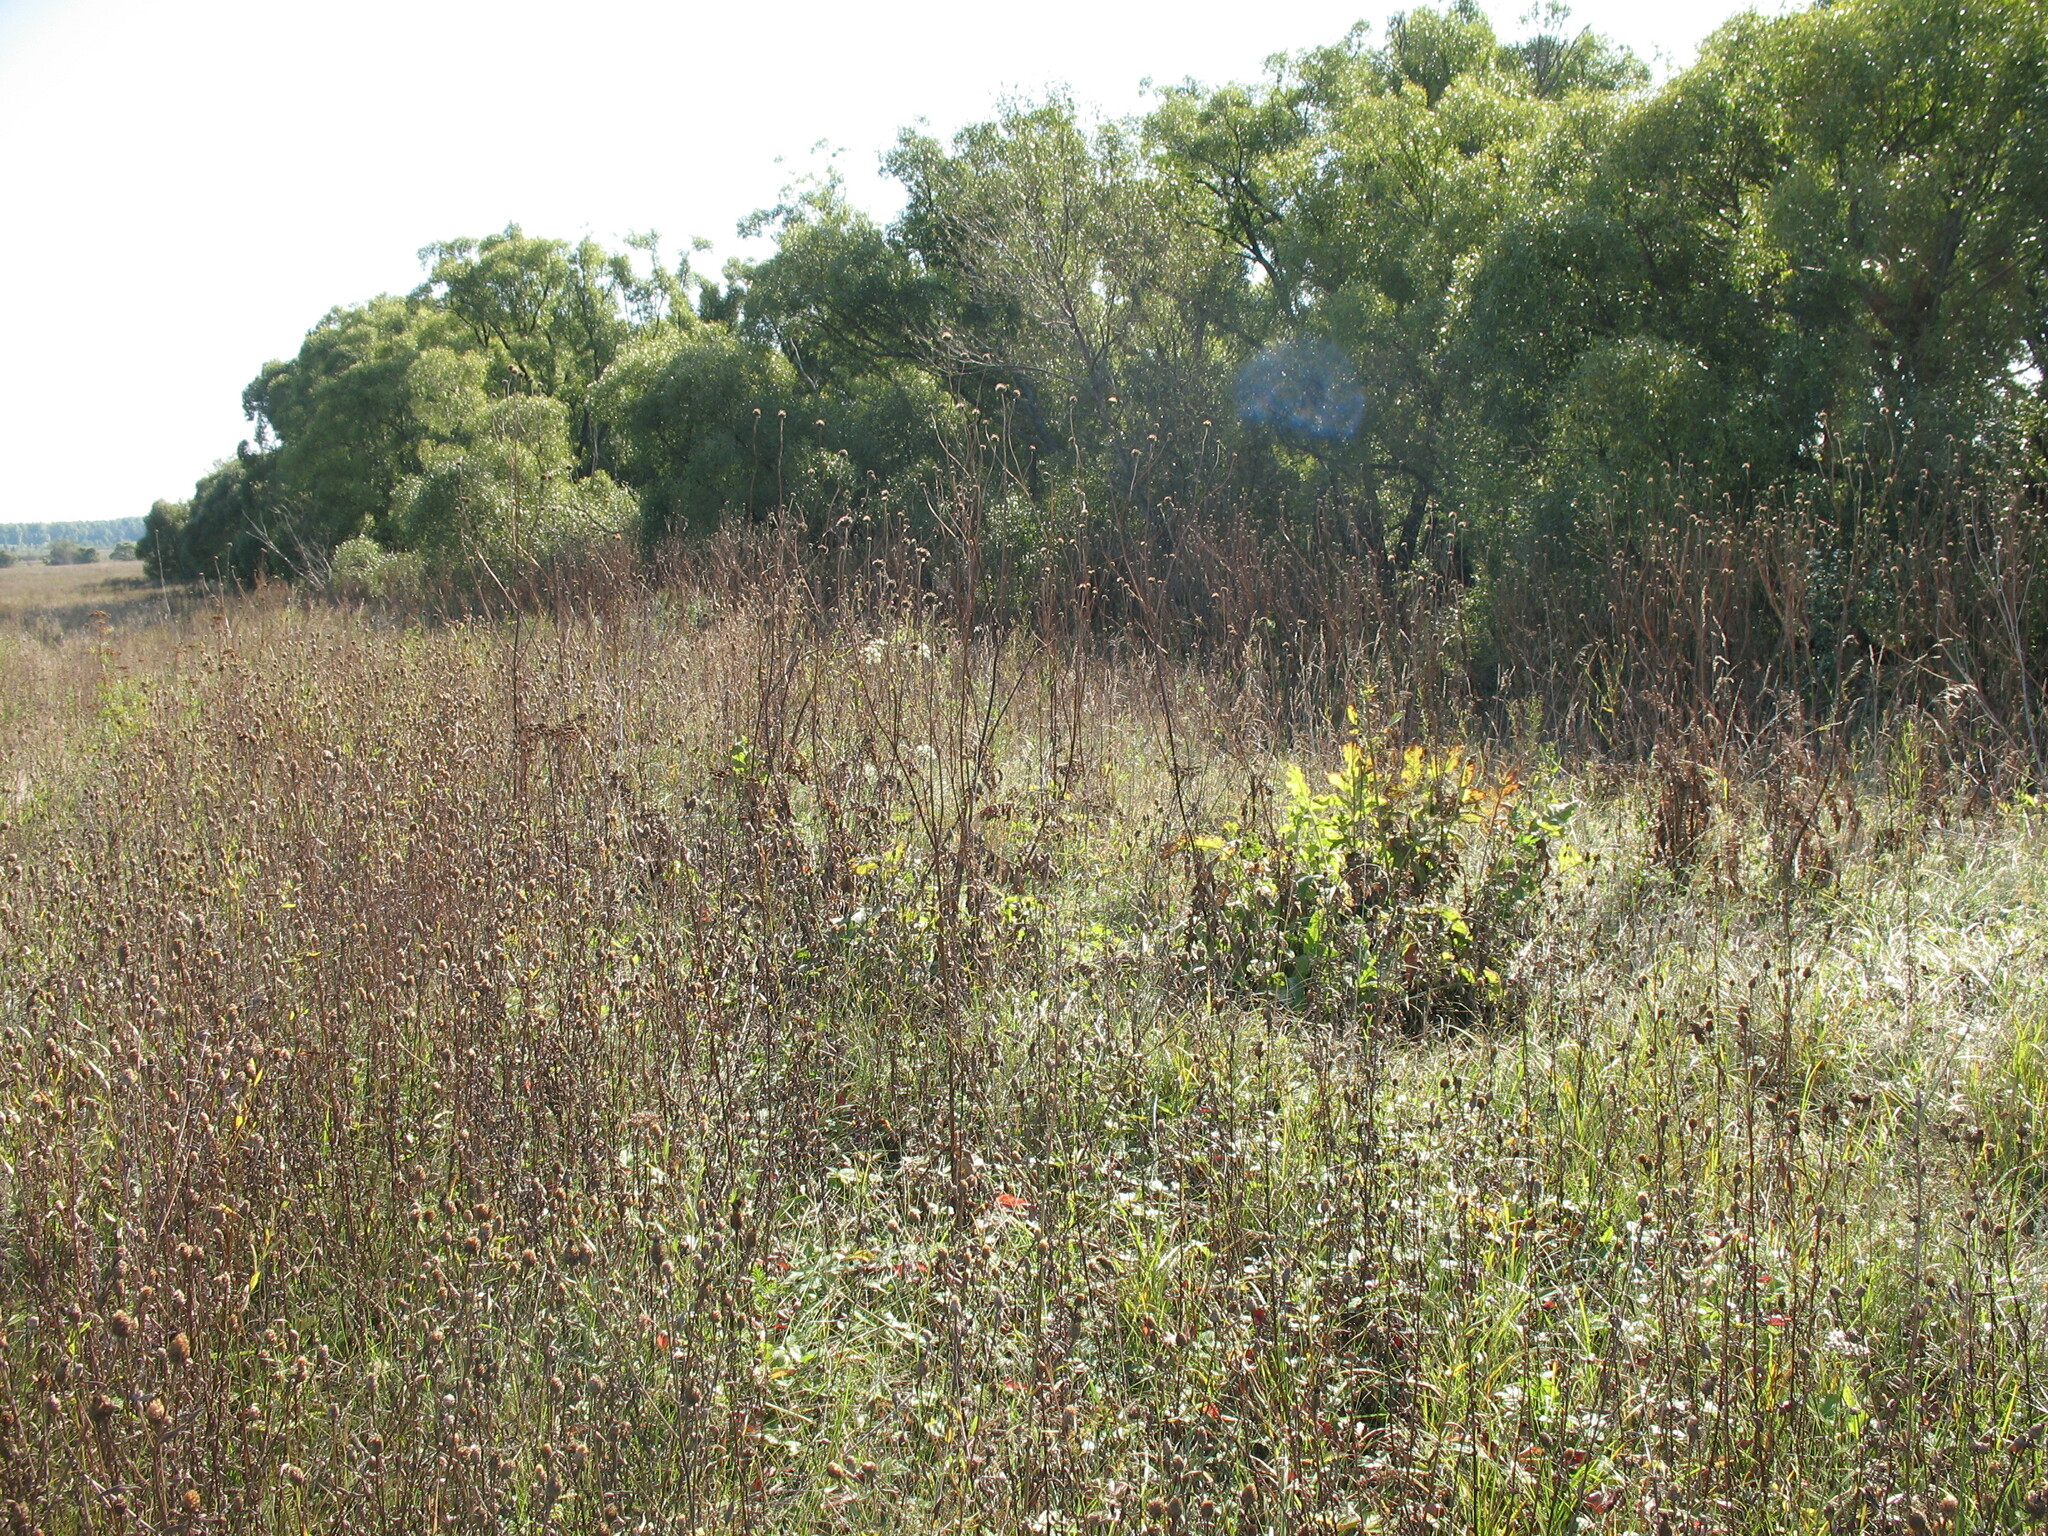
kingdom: Plantae
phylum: Tracheophyta
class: Magnoliopsida
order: Dipsacales
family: Caprifoliaceae
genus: Cephalaria
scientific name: Cephalaria litvinovii
